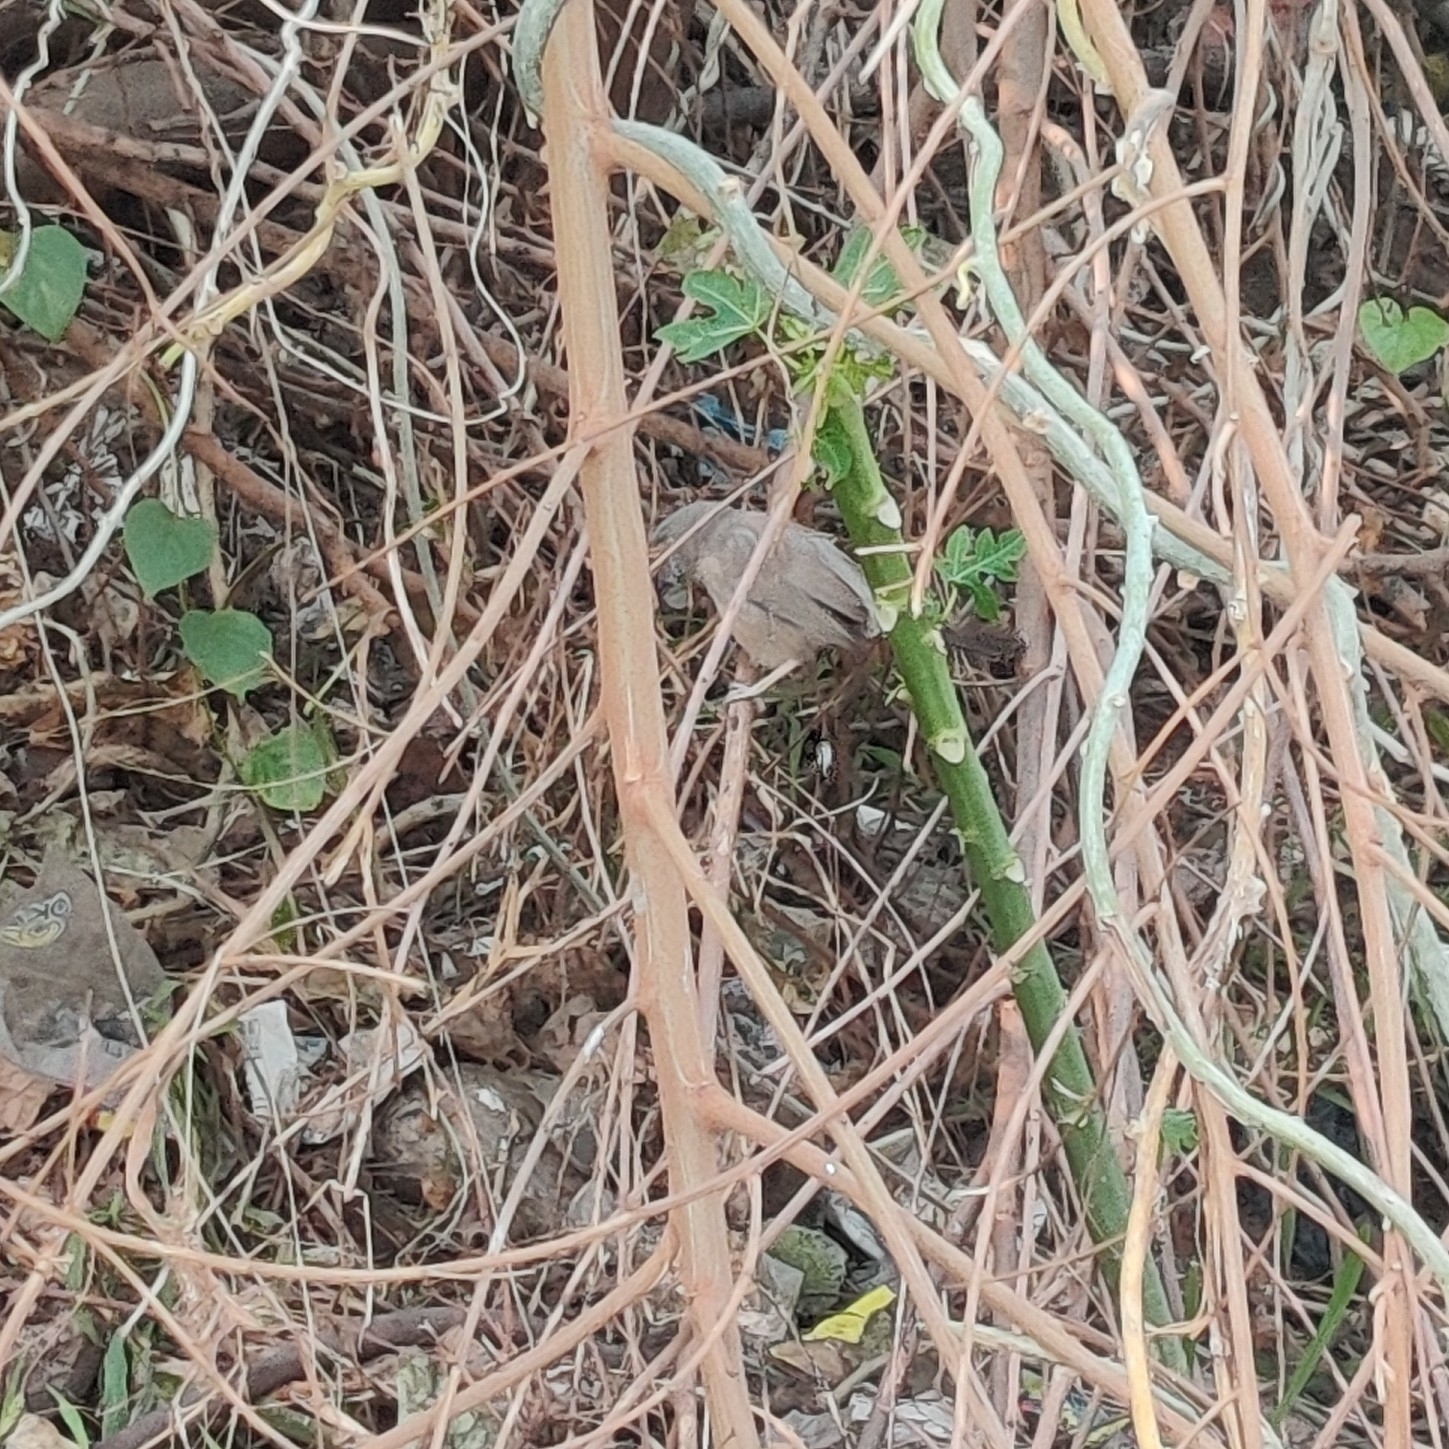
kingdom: Animalia
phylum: Chordata
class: Aves
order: Passeriformes
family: Leiothrichidae
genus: Turdoides
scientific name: Turdoides striata
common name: Jungle babbler
